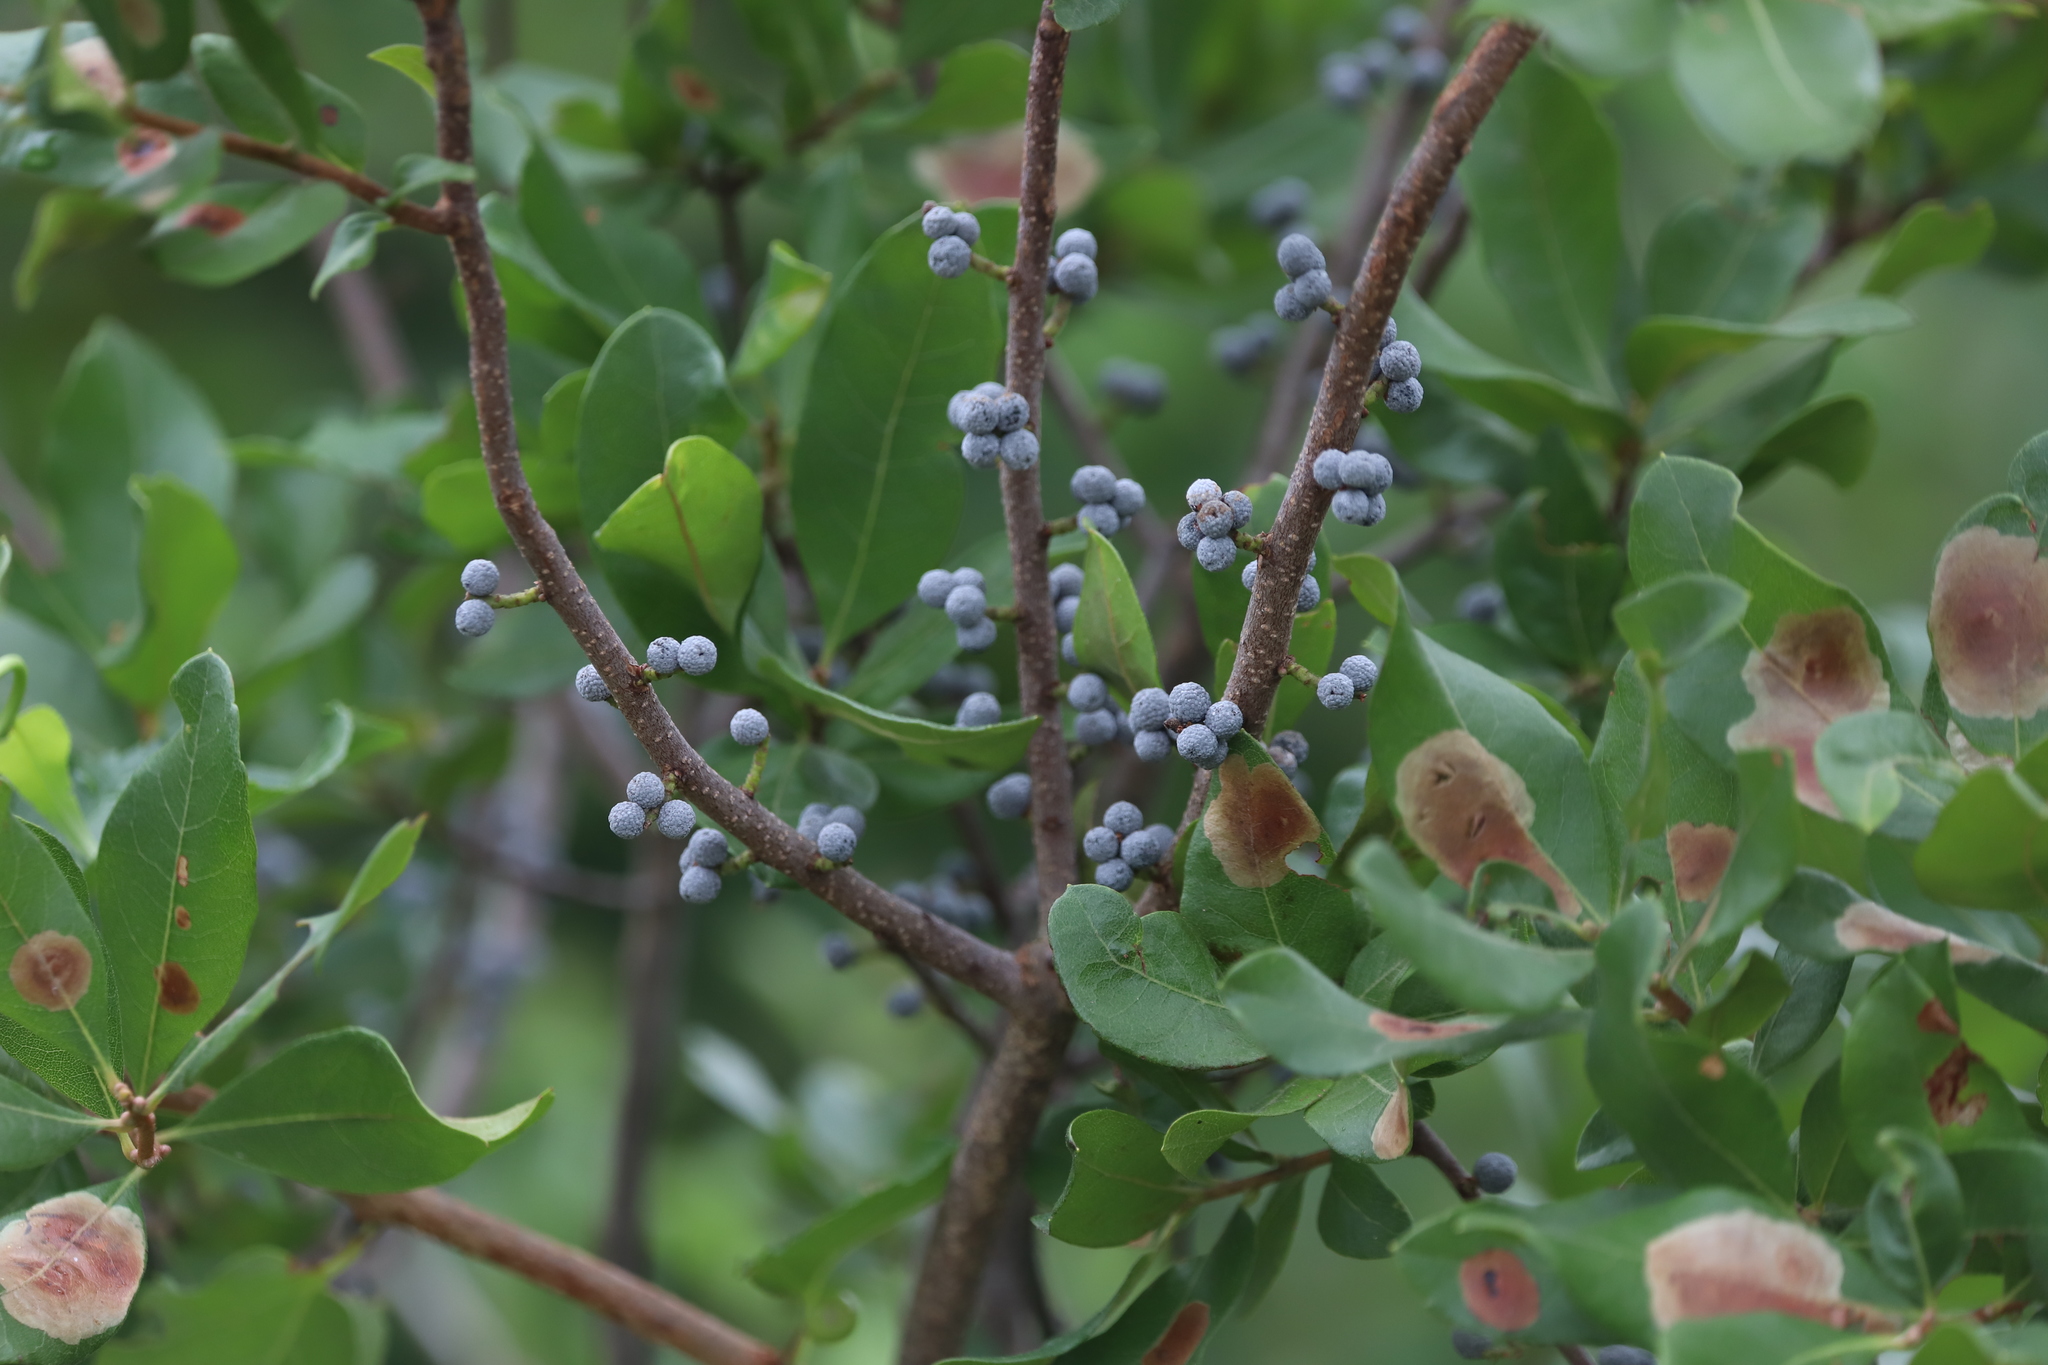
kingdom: Plantae
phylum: Tracheophyta
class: Magnoliopsida
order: Fagales
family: Myricaceae
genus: Morella
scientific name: Morella pensylvanica
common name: Northern bayberry
